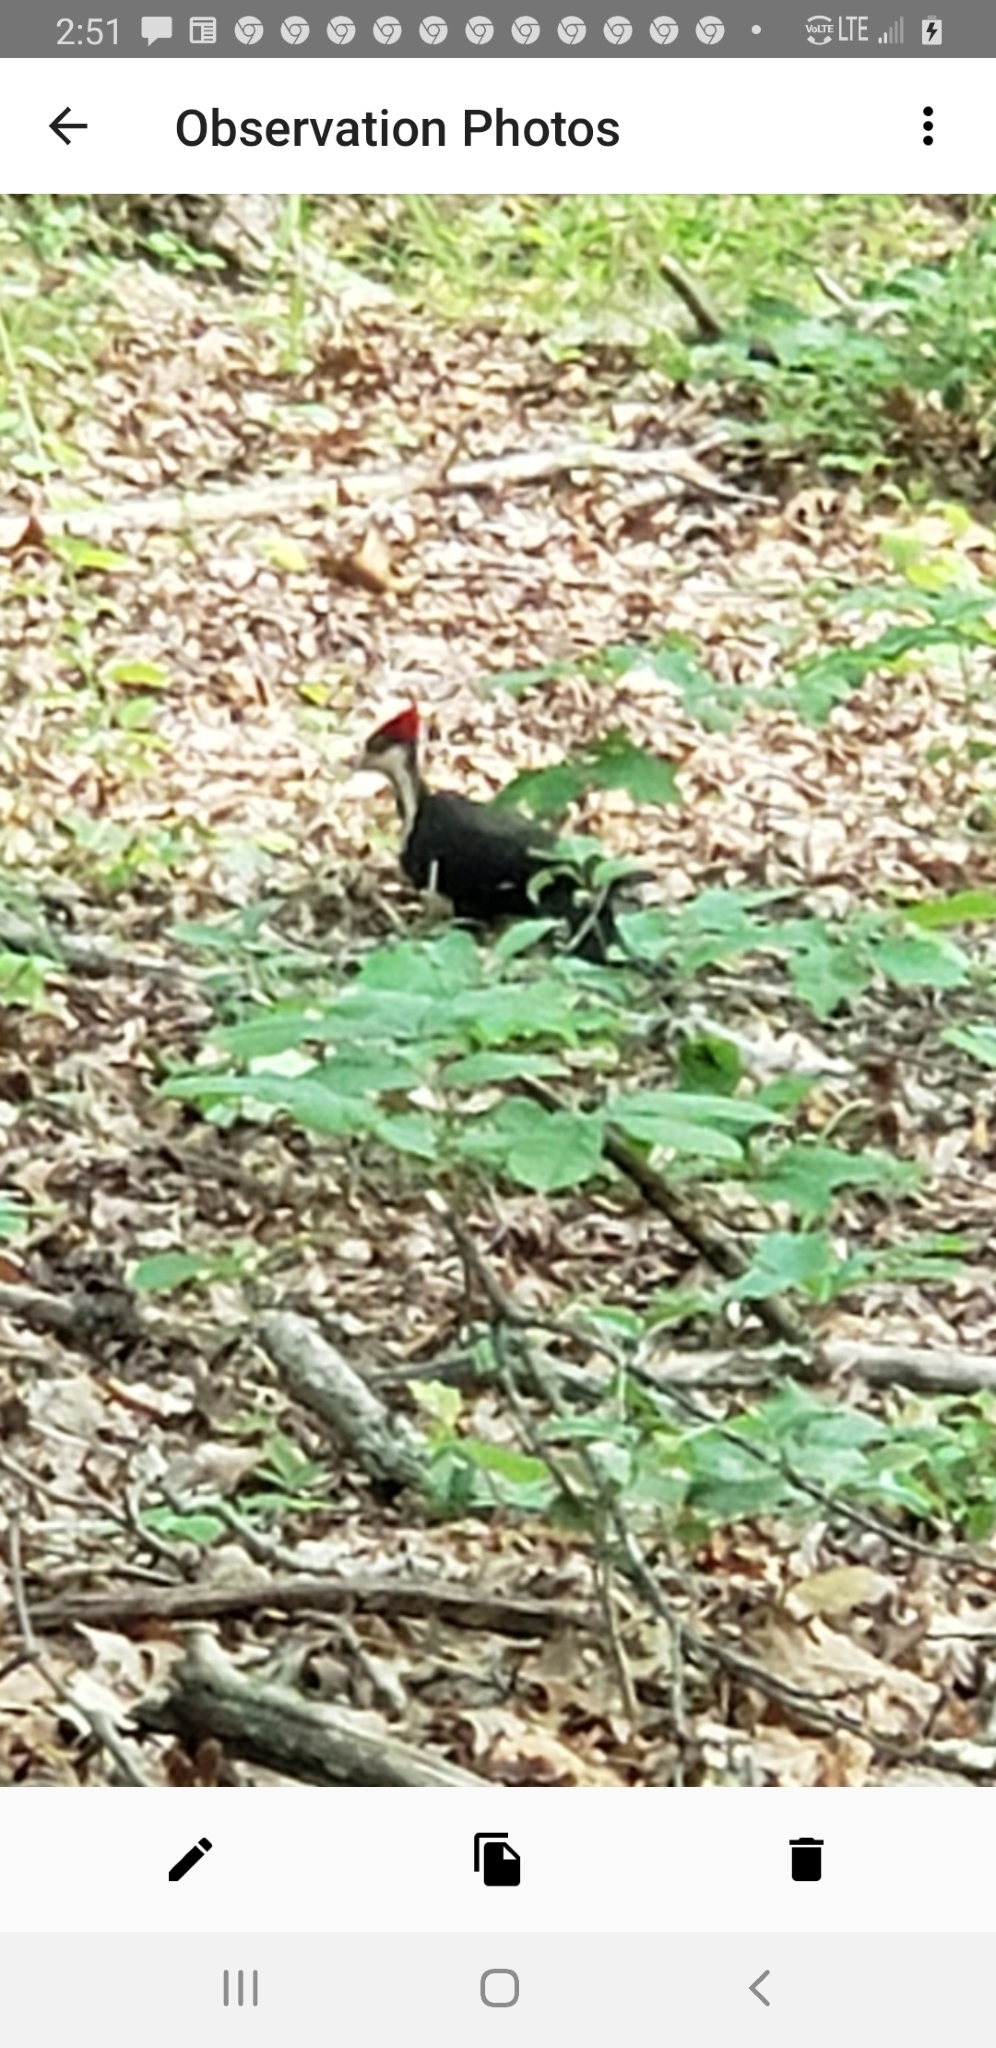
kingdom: Animalia
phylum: Chordata
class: Aves
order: Piciformes
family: Picidae
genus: Dryocopus
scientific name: Dryocopus pileatus
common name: Pileated woodpecker
